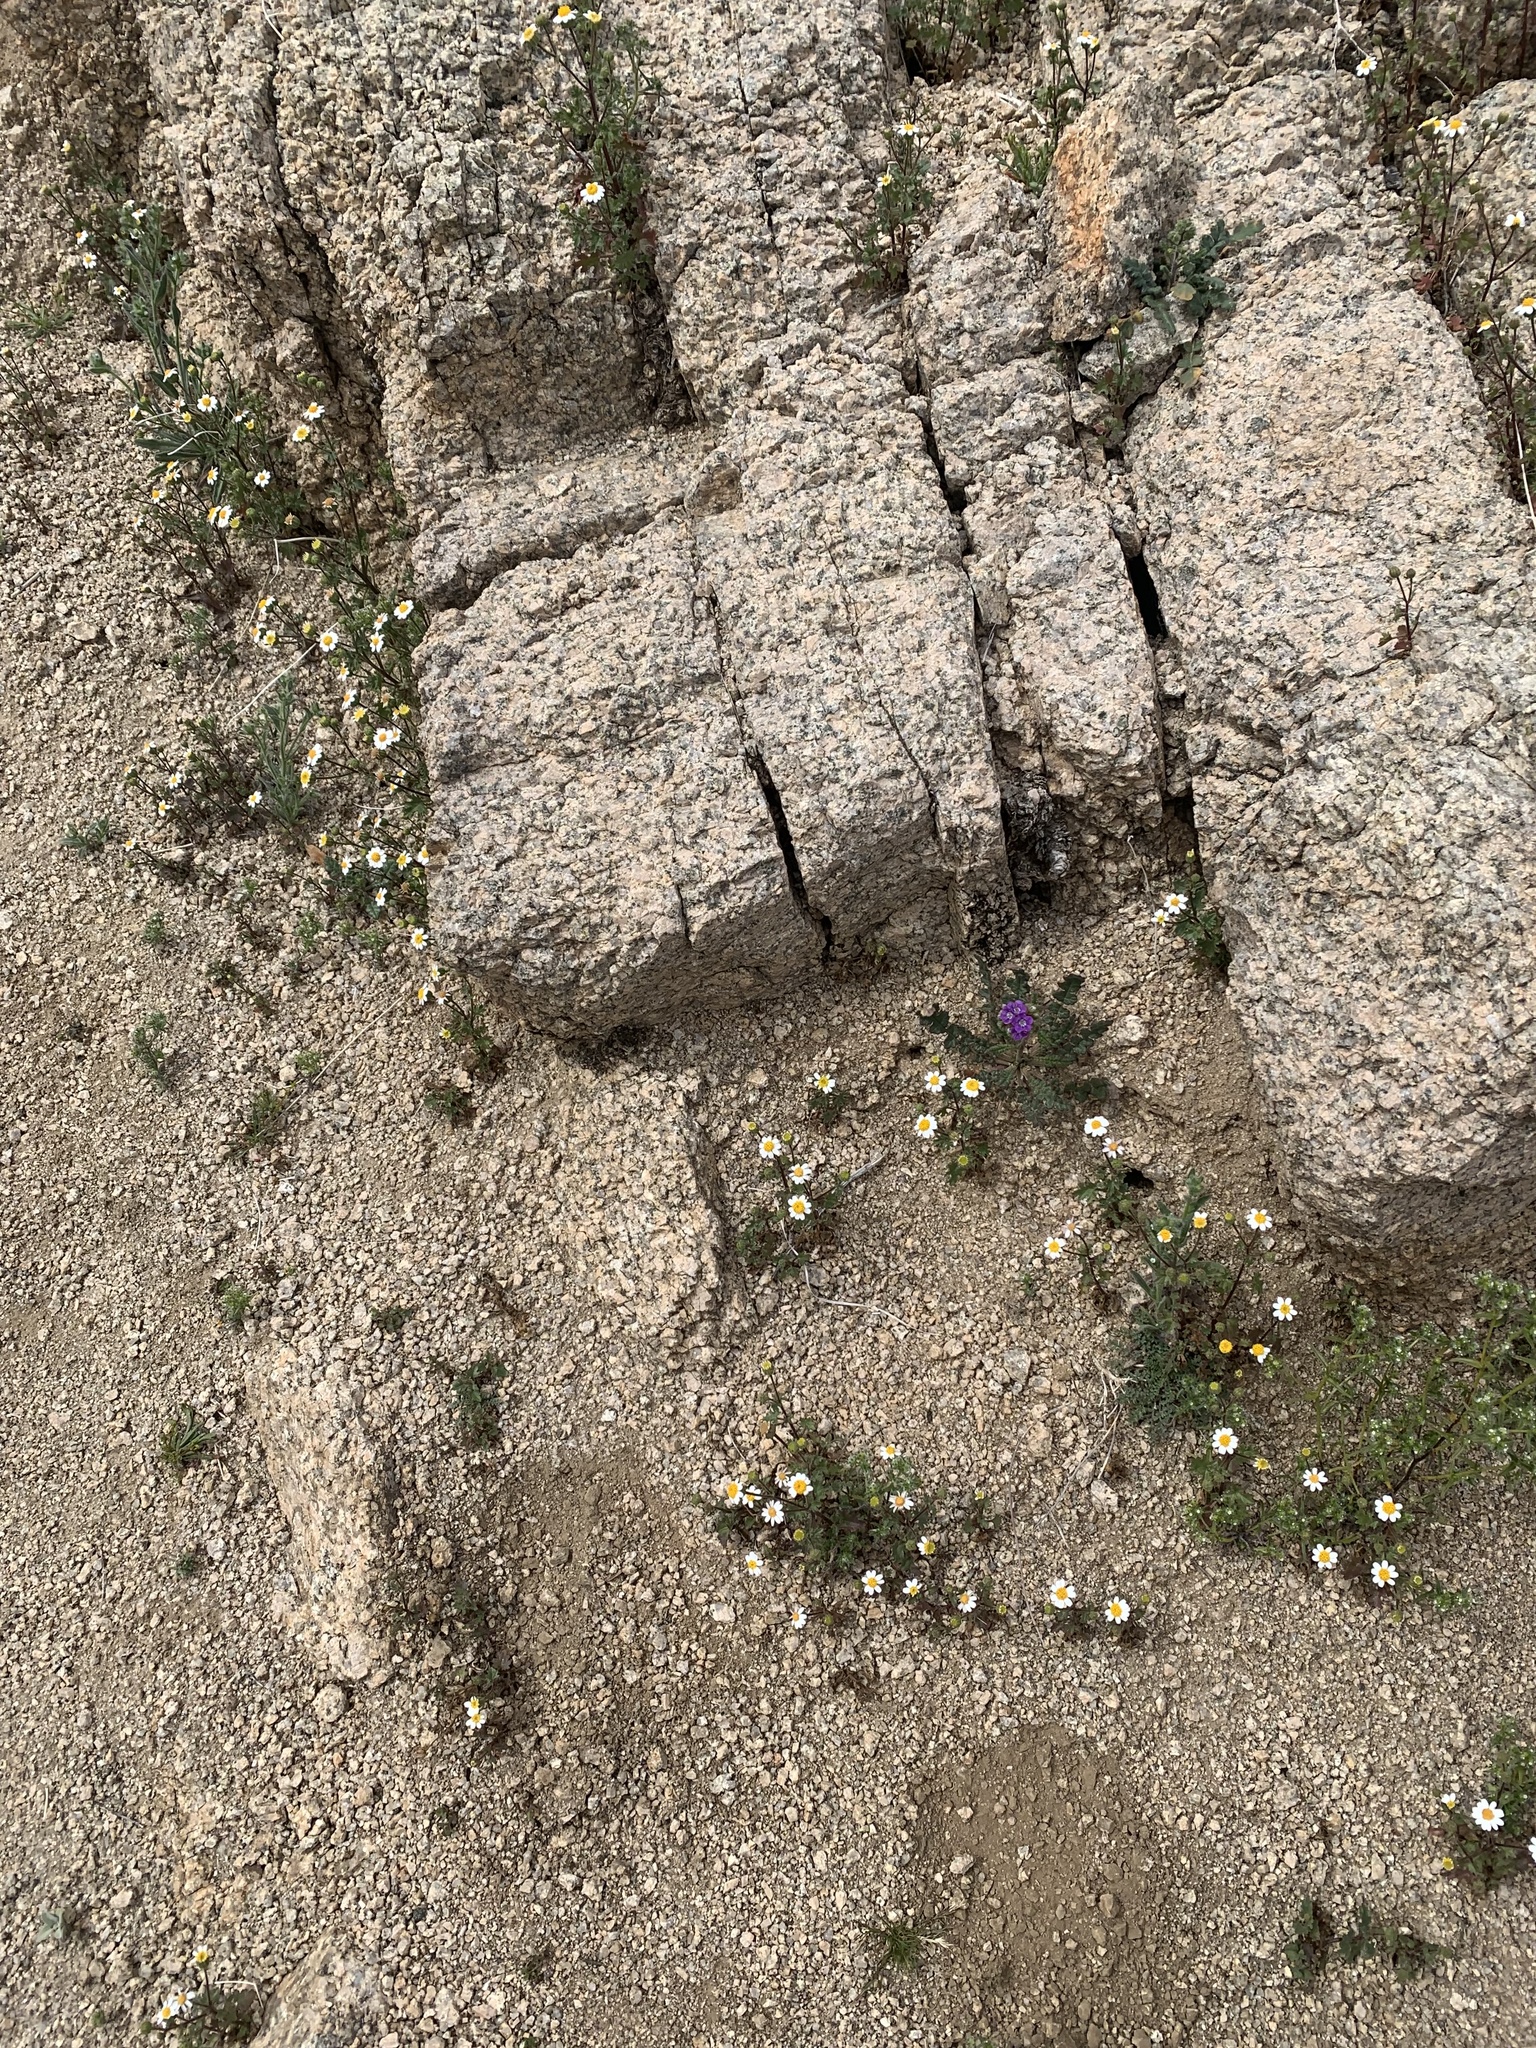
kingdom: Plantae
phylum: Tracheophyta
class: Magnoliopsida
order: Asterales
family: Asteraceae
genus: Laphamia
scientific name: Laphamia emoryi
